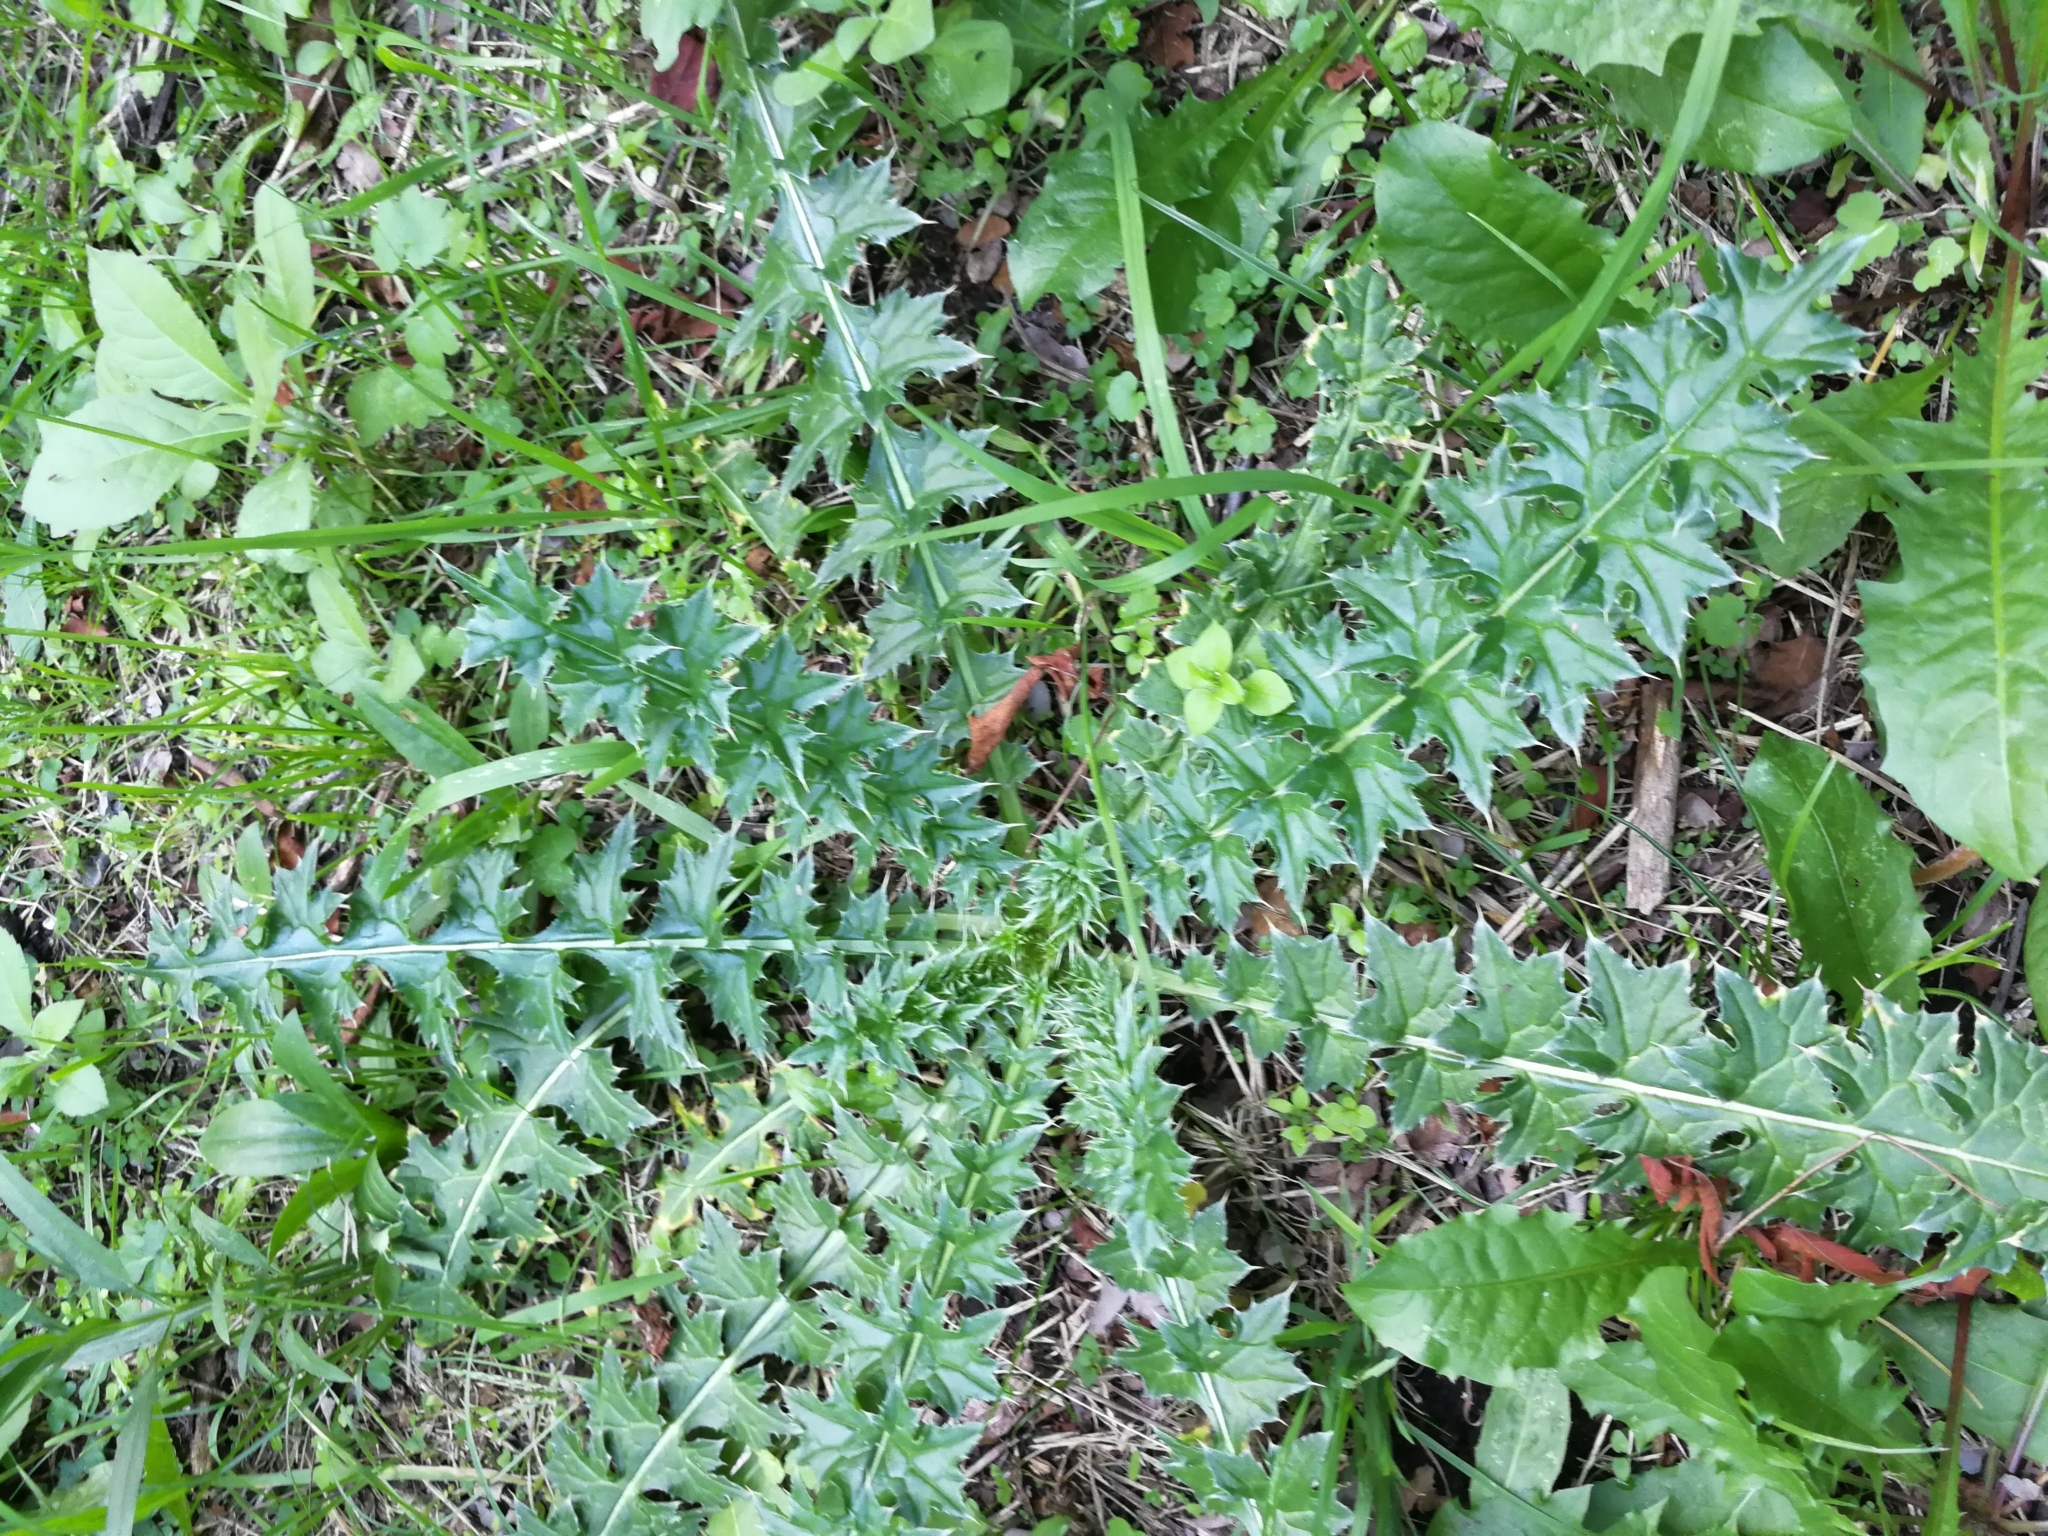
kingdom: Plantae
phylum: Tracheophyta
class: Magnoliopsida
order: Asterales
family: Asteraceae
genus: Carduus
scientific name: Carduus acanthoides
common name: Plumeless thistle
